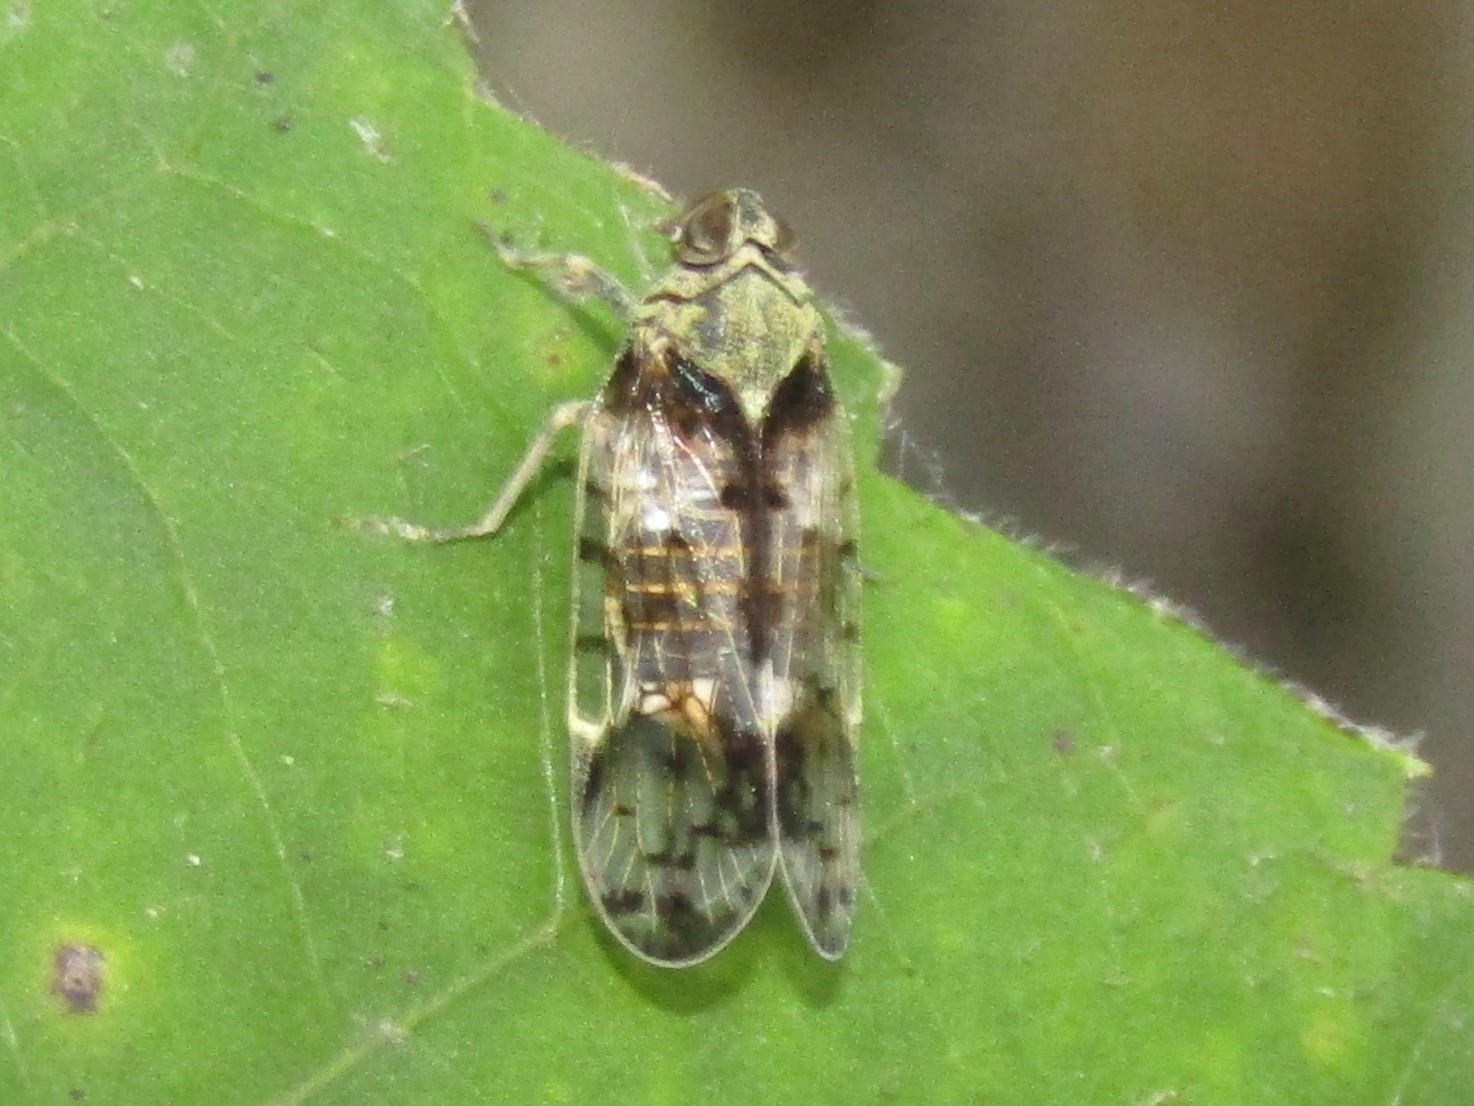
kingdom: Animalia
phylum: Arthropoda
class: Insecta
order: Hemiptera
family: Cixiidae
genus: Melanoliarus
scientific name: Melanoliarus placitus
